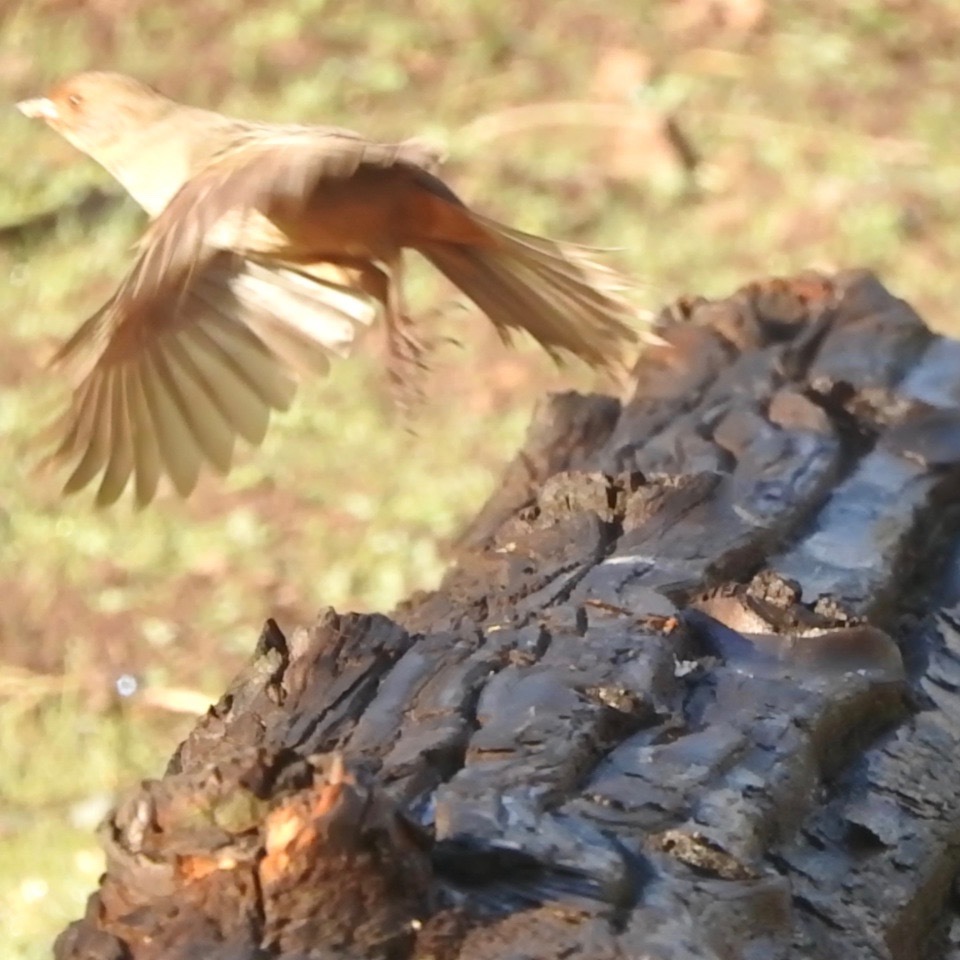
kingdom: Animalia
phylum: Chordata
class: Aves
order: Passeriformes
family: Passerellidae
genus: Melozone
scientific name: Melozone crissalis
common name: California towhee
